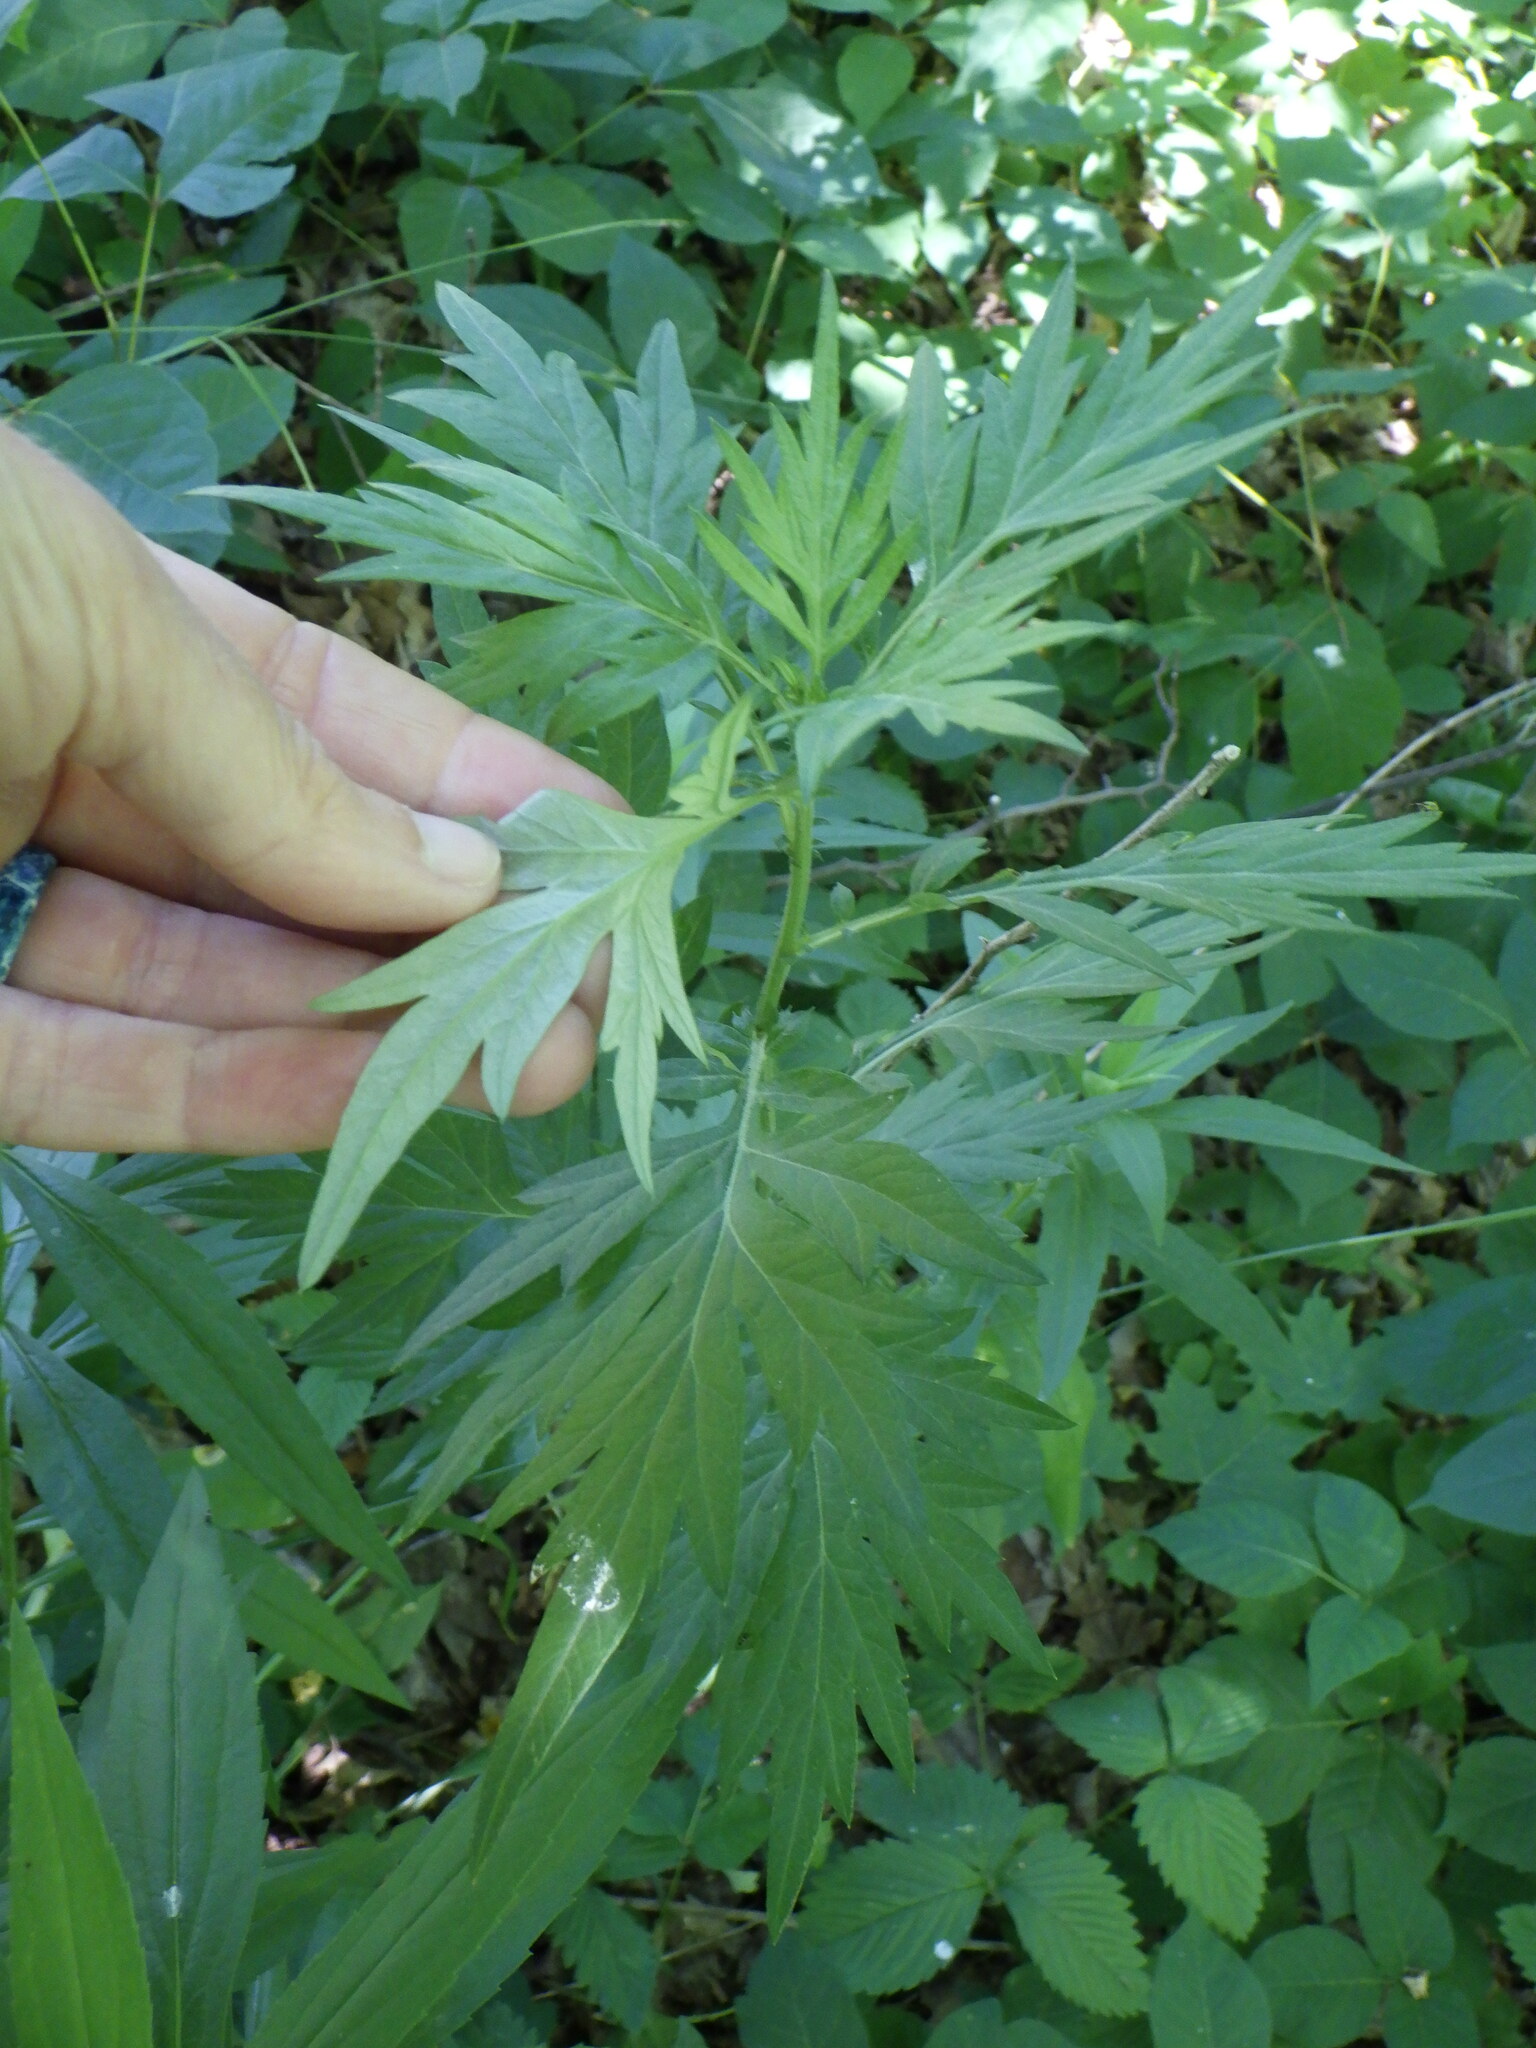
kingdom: Plantae
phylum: Tracheophyta
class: Magnoliopsida
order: Asterales
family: Asteraceae
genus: Artemisia
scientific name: Artemisia vulgaris
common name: Mugwort
